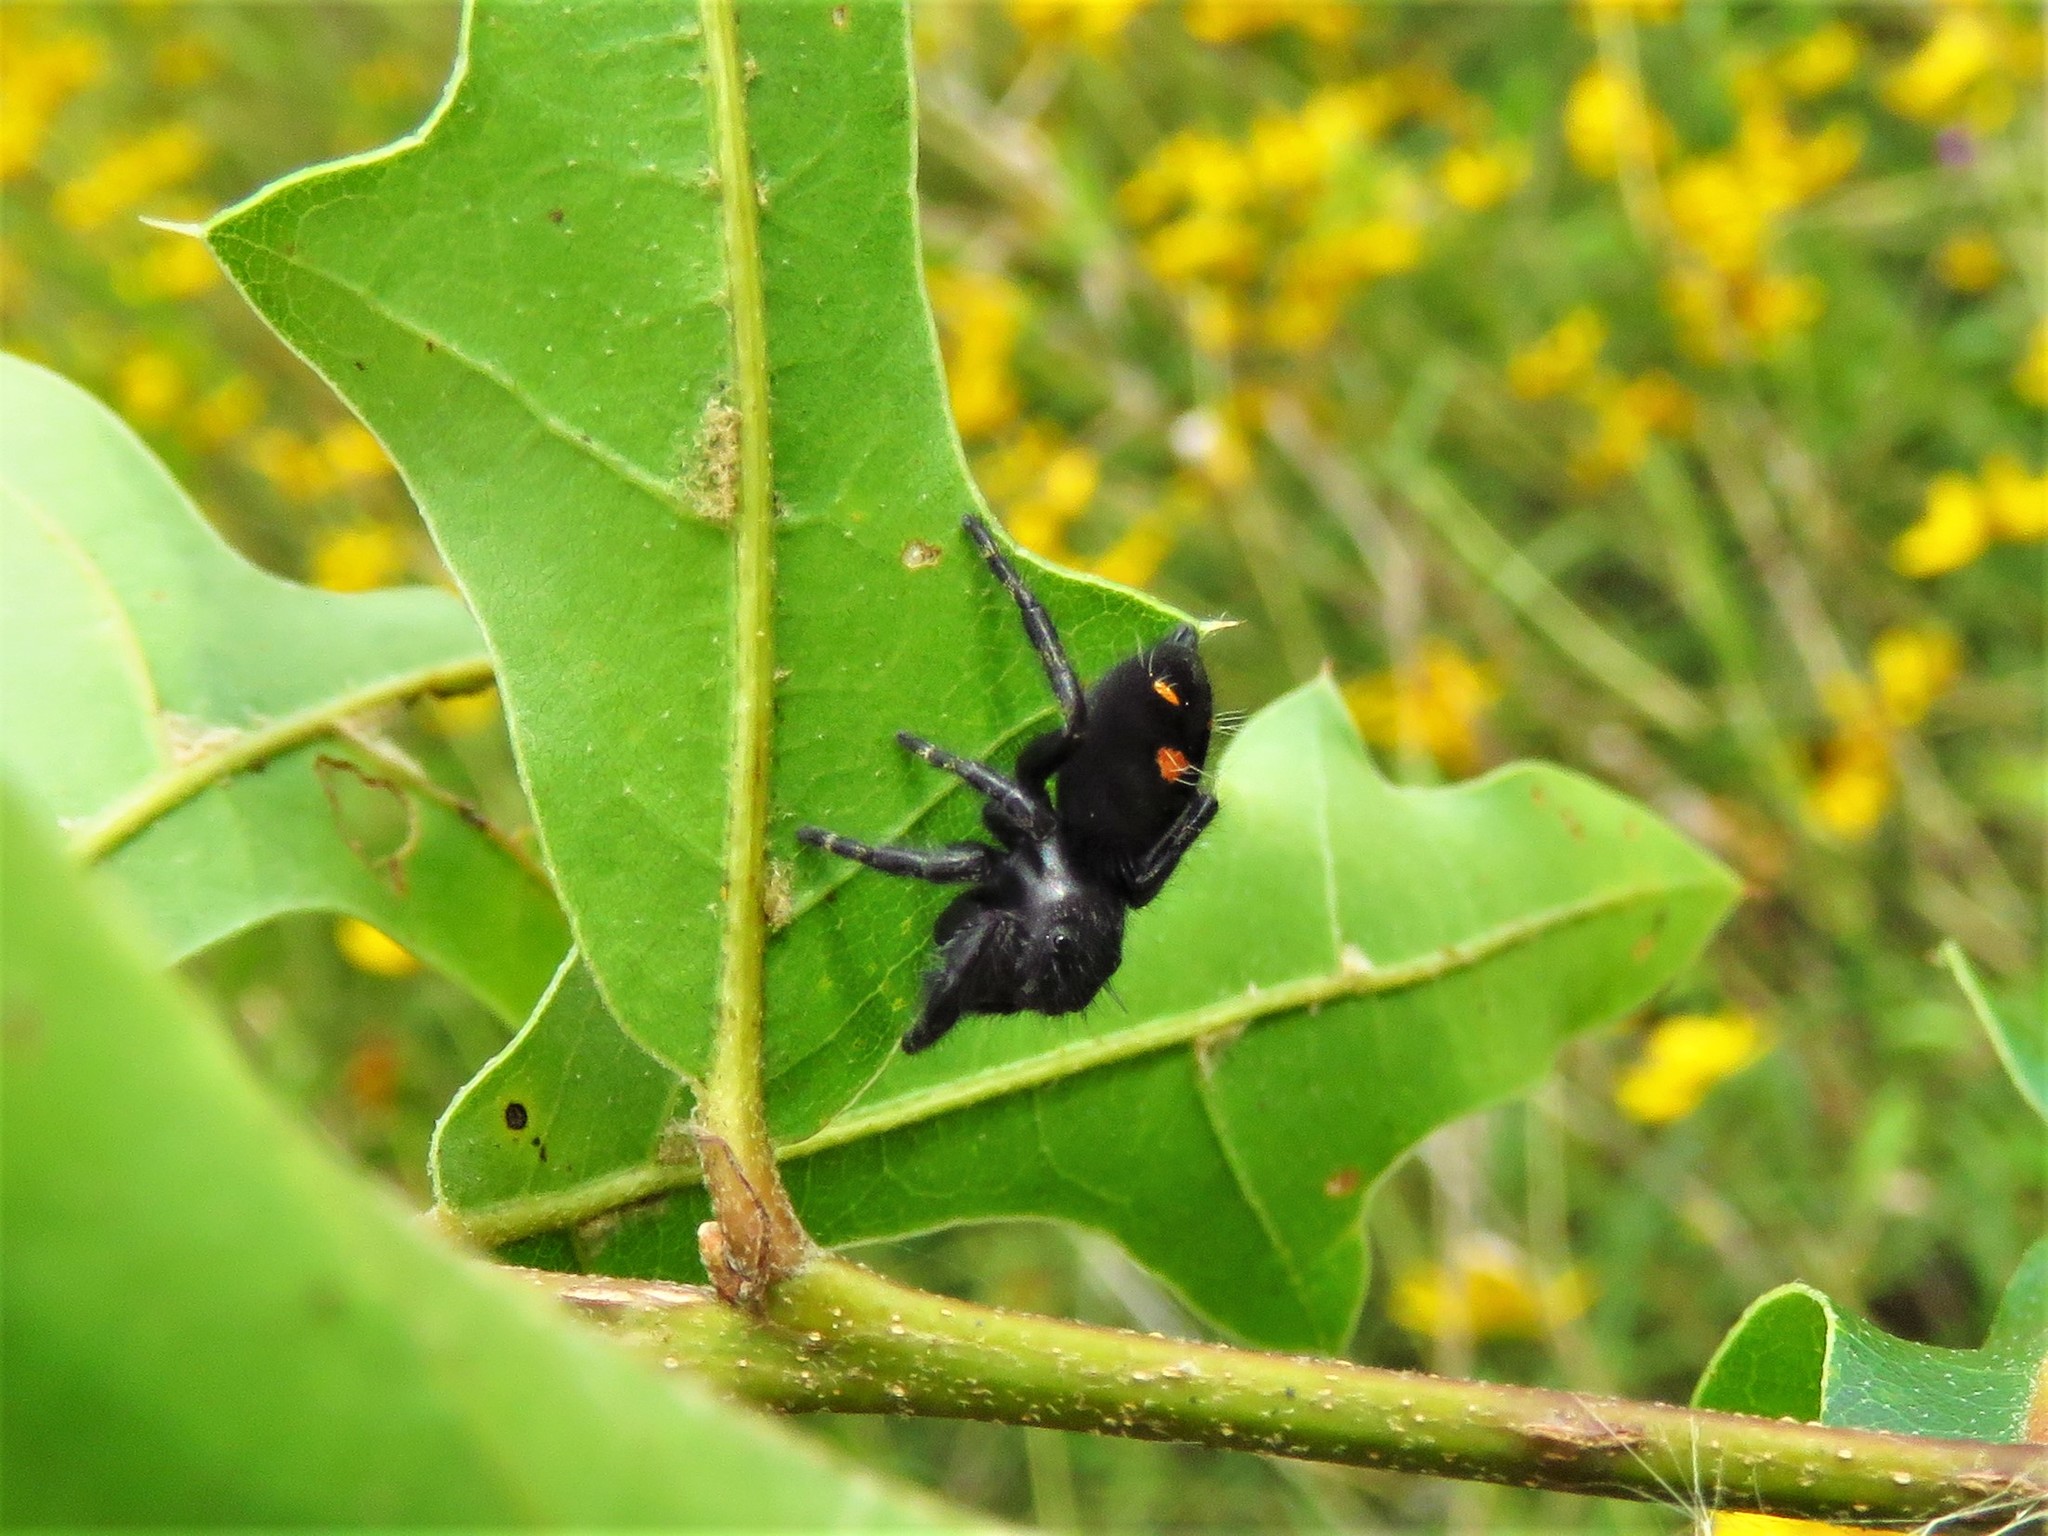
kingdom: Animalia
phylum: Arthropoda
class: Arachnida
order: Araneae
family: Salticidae
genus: Phidippus
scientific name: Phidippus audax
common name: Bold jumper
